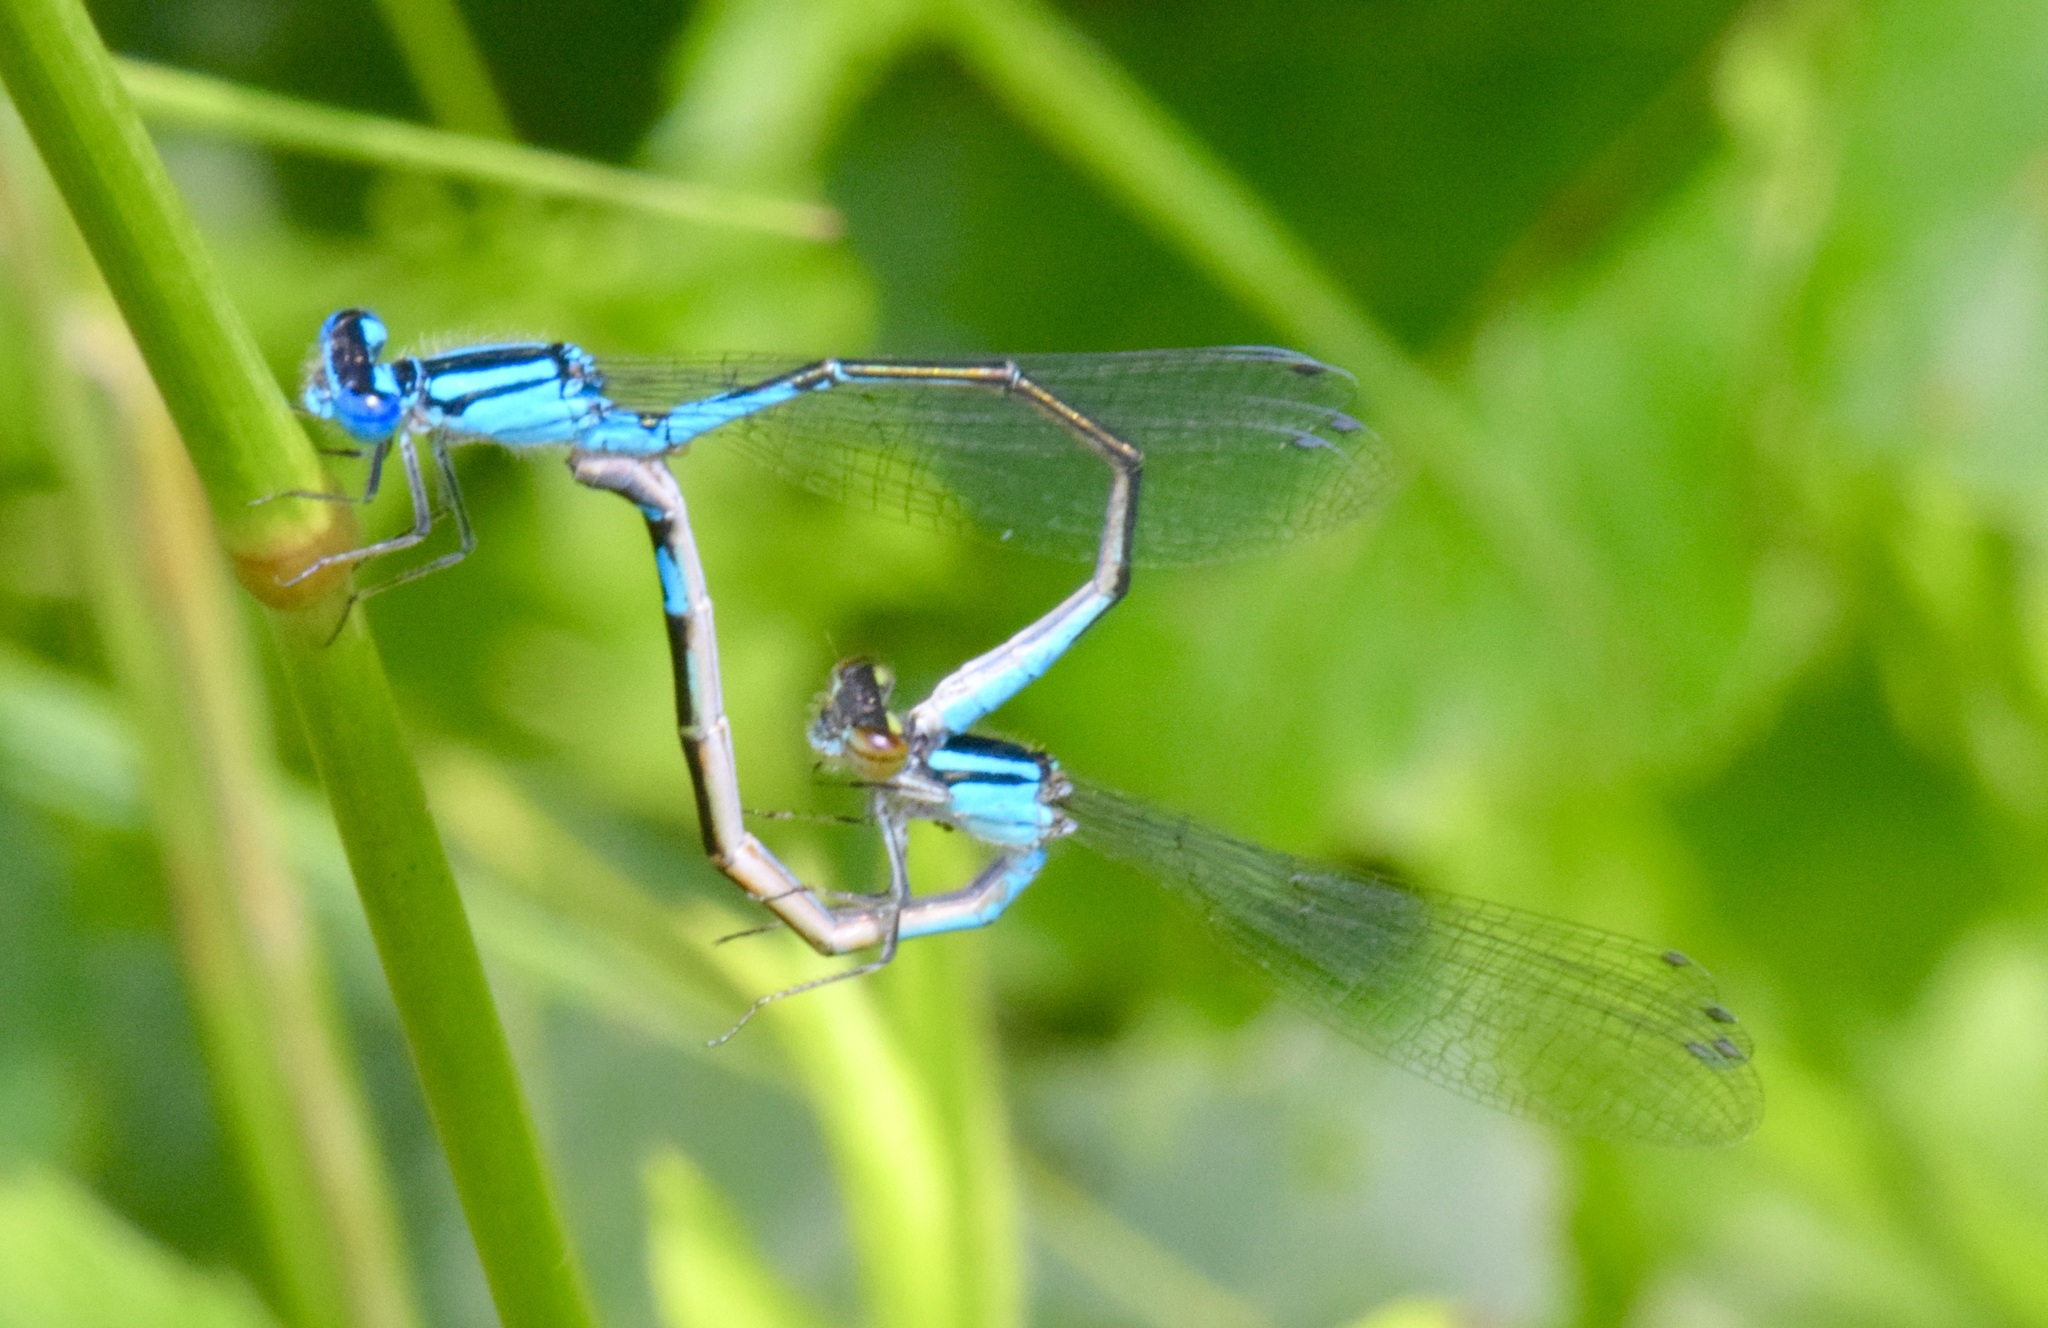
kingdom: Animalia
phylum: Arthropoda
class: Insecta
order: Odonata
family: Coenagrionidae
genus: Enallagma
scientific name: Enallagma aspersum
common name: Azure bluet
